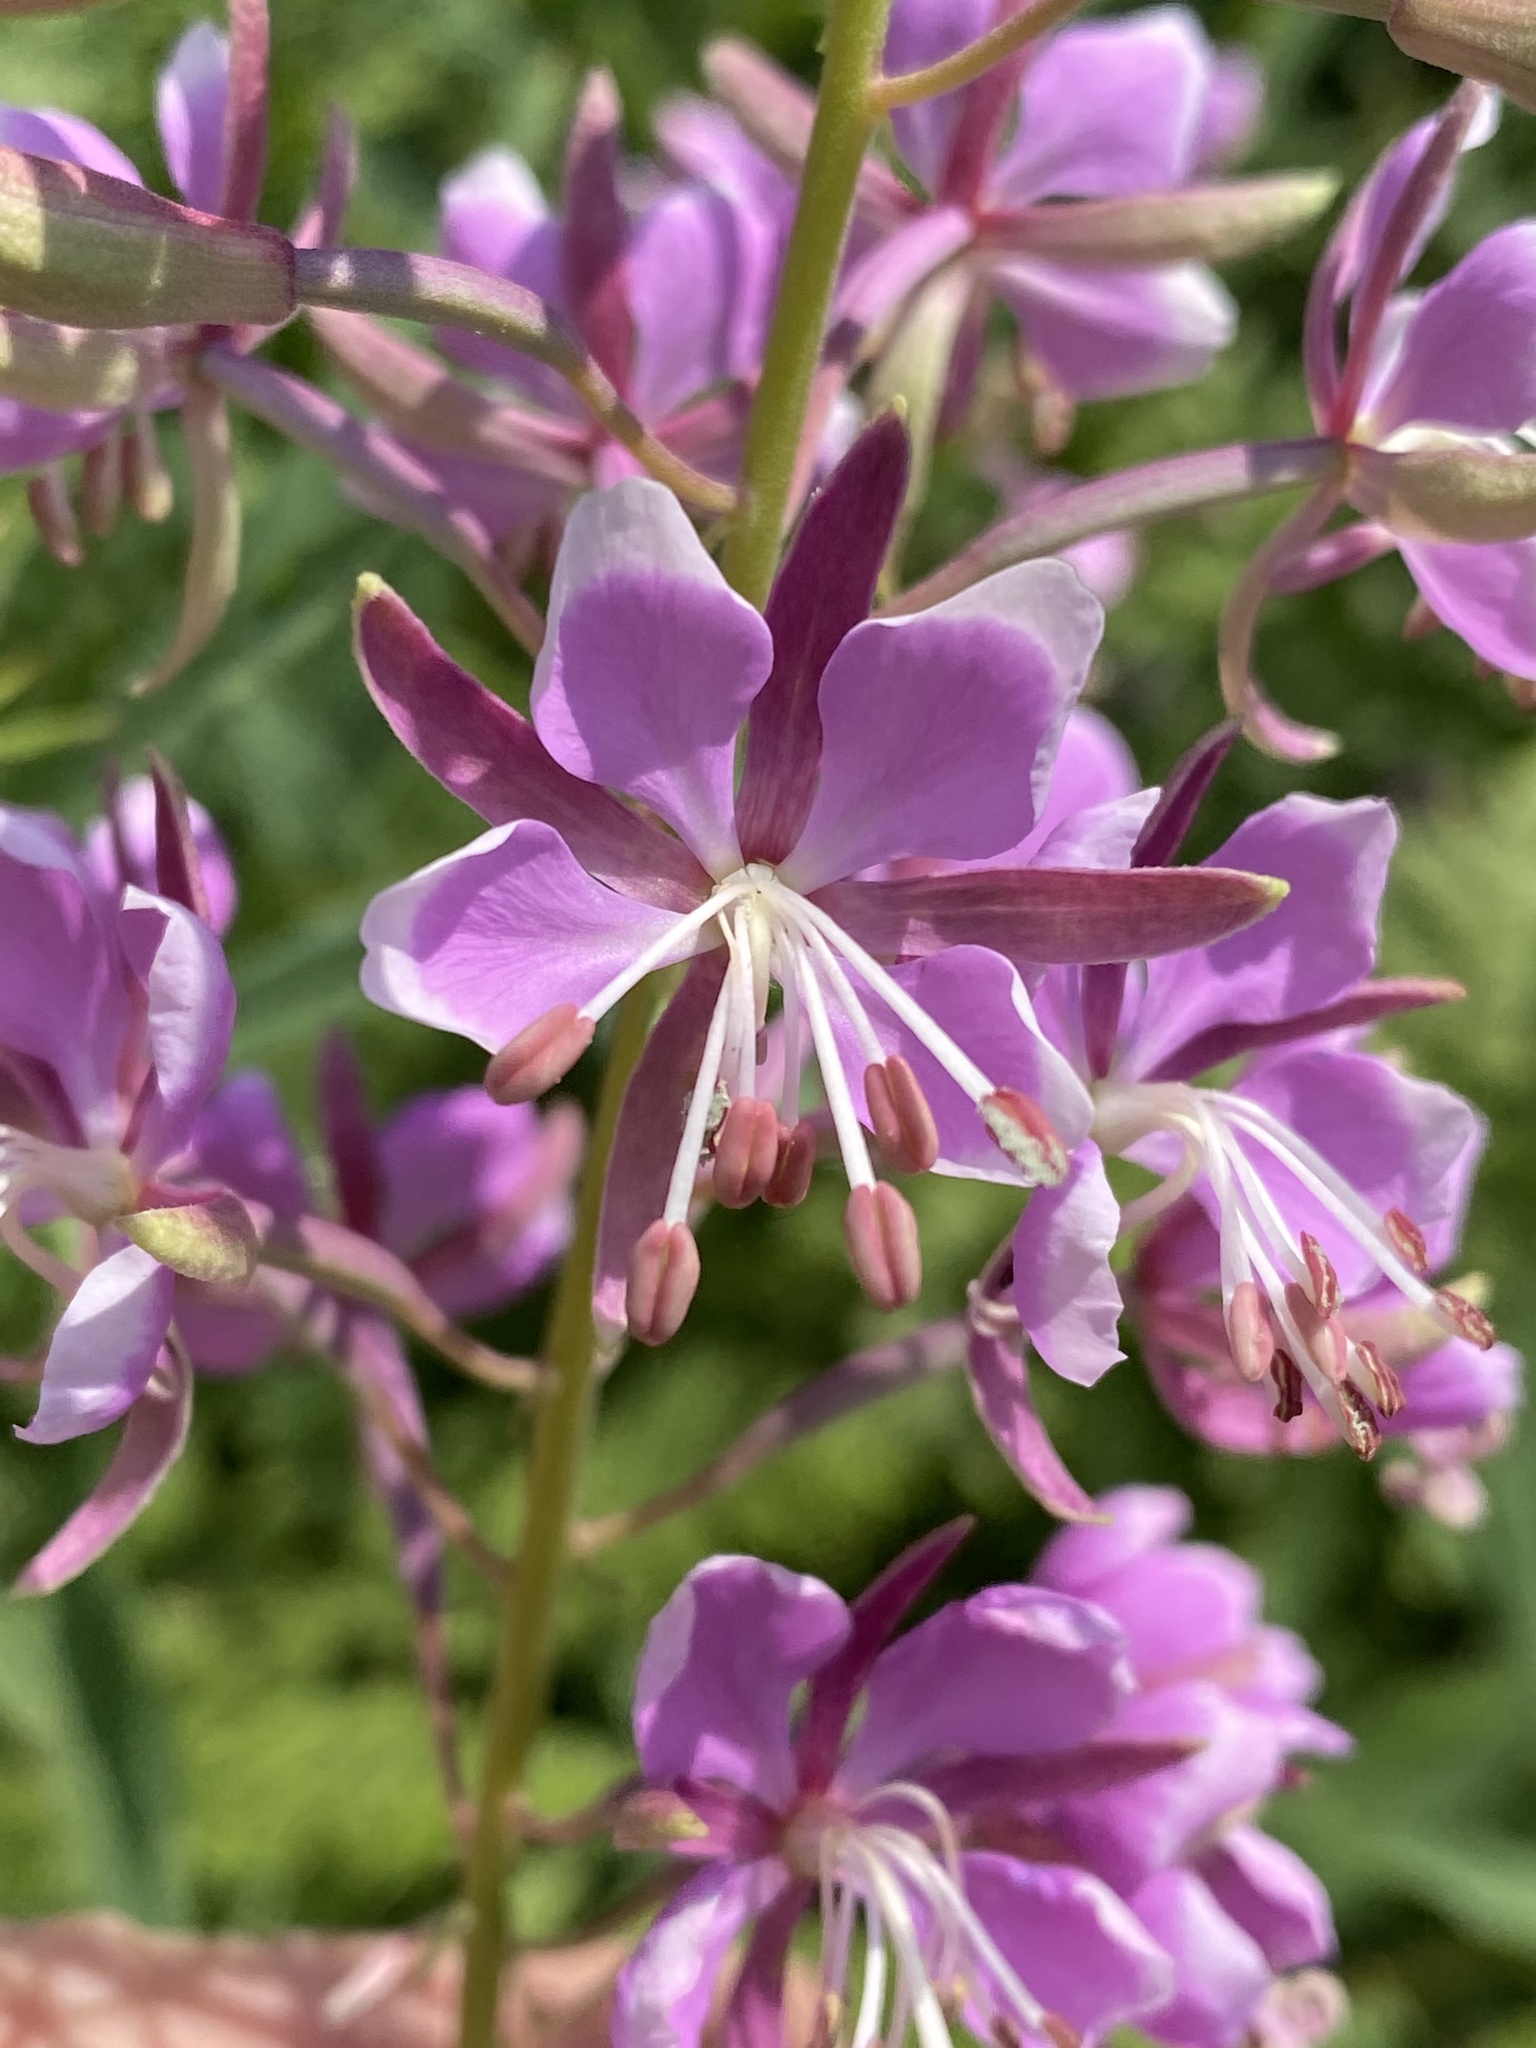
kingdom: Plantae
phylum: Tracheophyta
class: Magnoliopsida
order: Myrtales
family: Onagraceae
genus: Chamaenerion
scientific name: Chamaenerion angustifolium
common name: Fireweed
